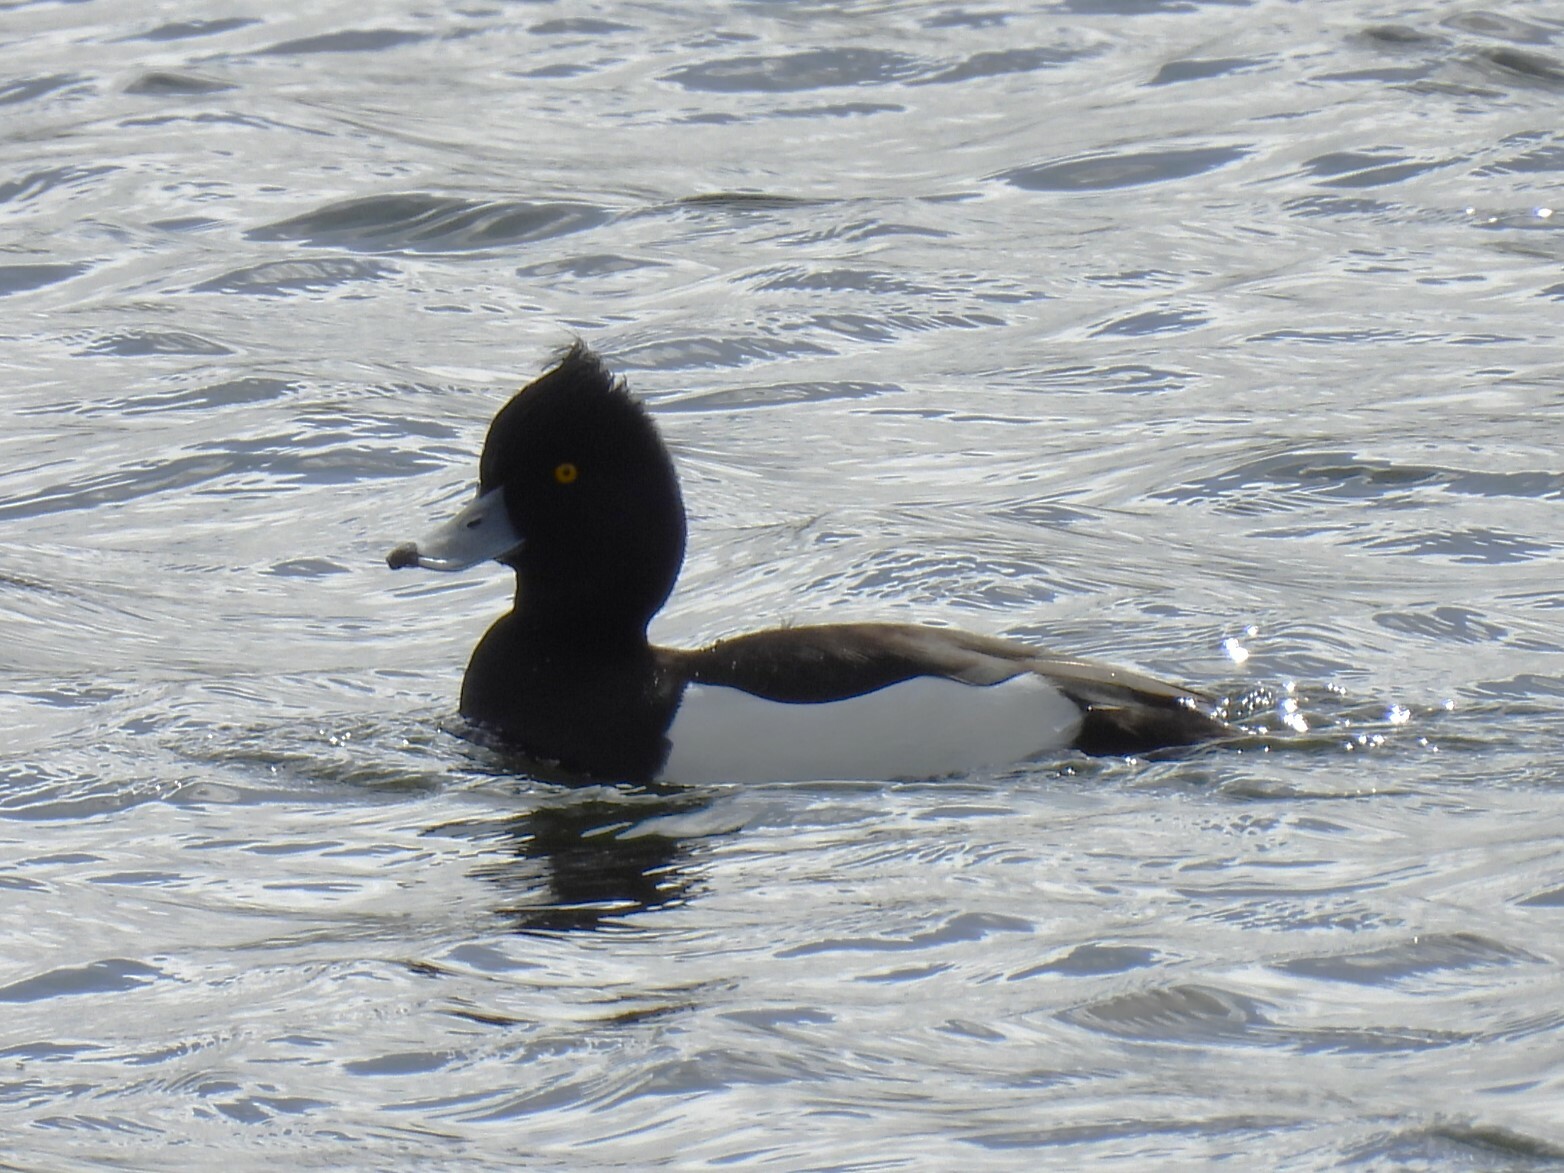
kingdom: Animalia
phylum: Chordata
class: Aves
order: Anseriformes
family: Anatidae
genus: Aythya
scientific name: Aythya fuligula
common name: Tufted duck
